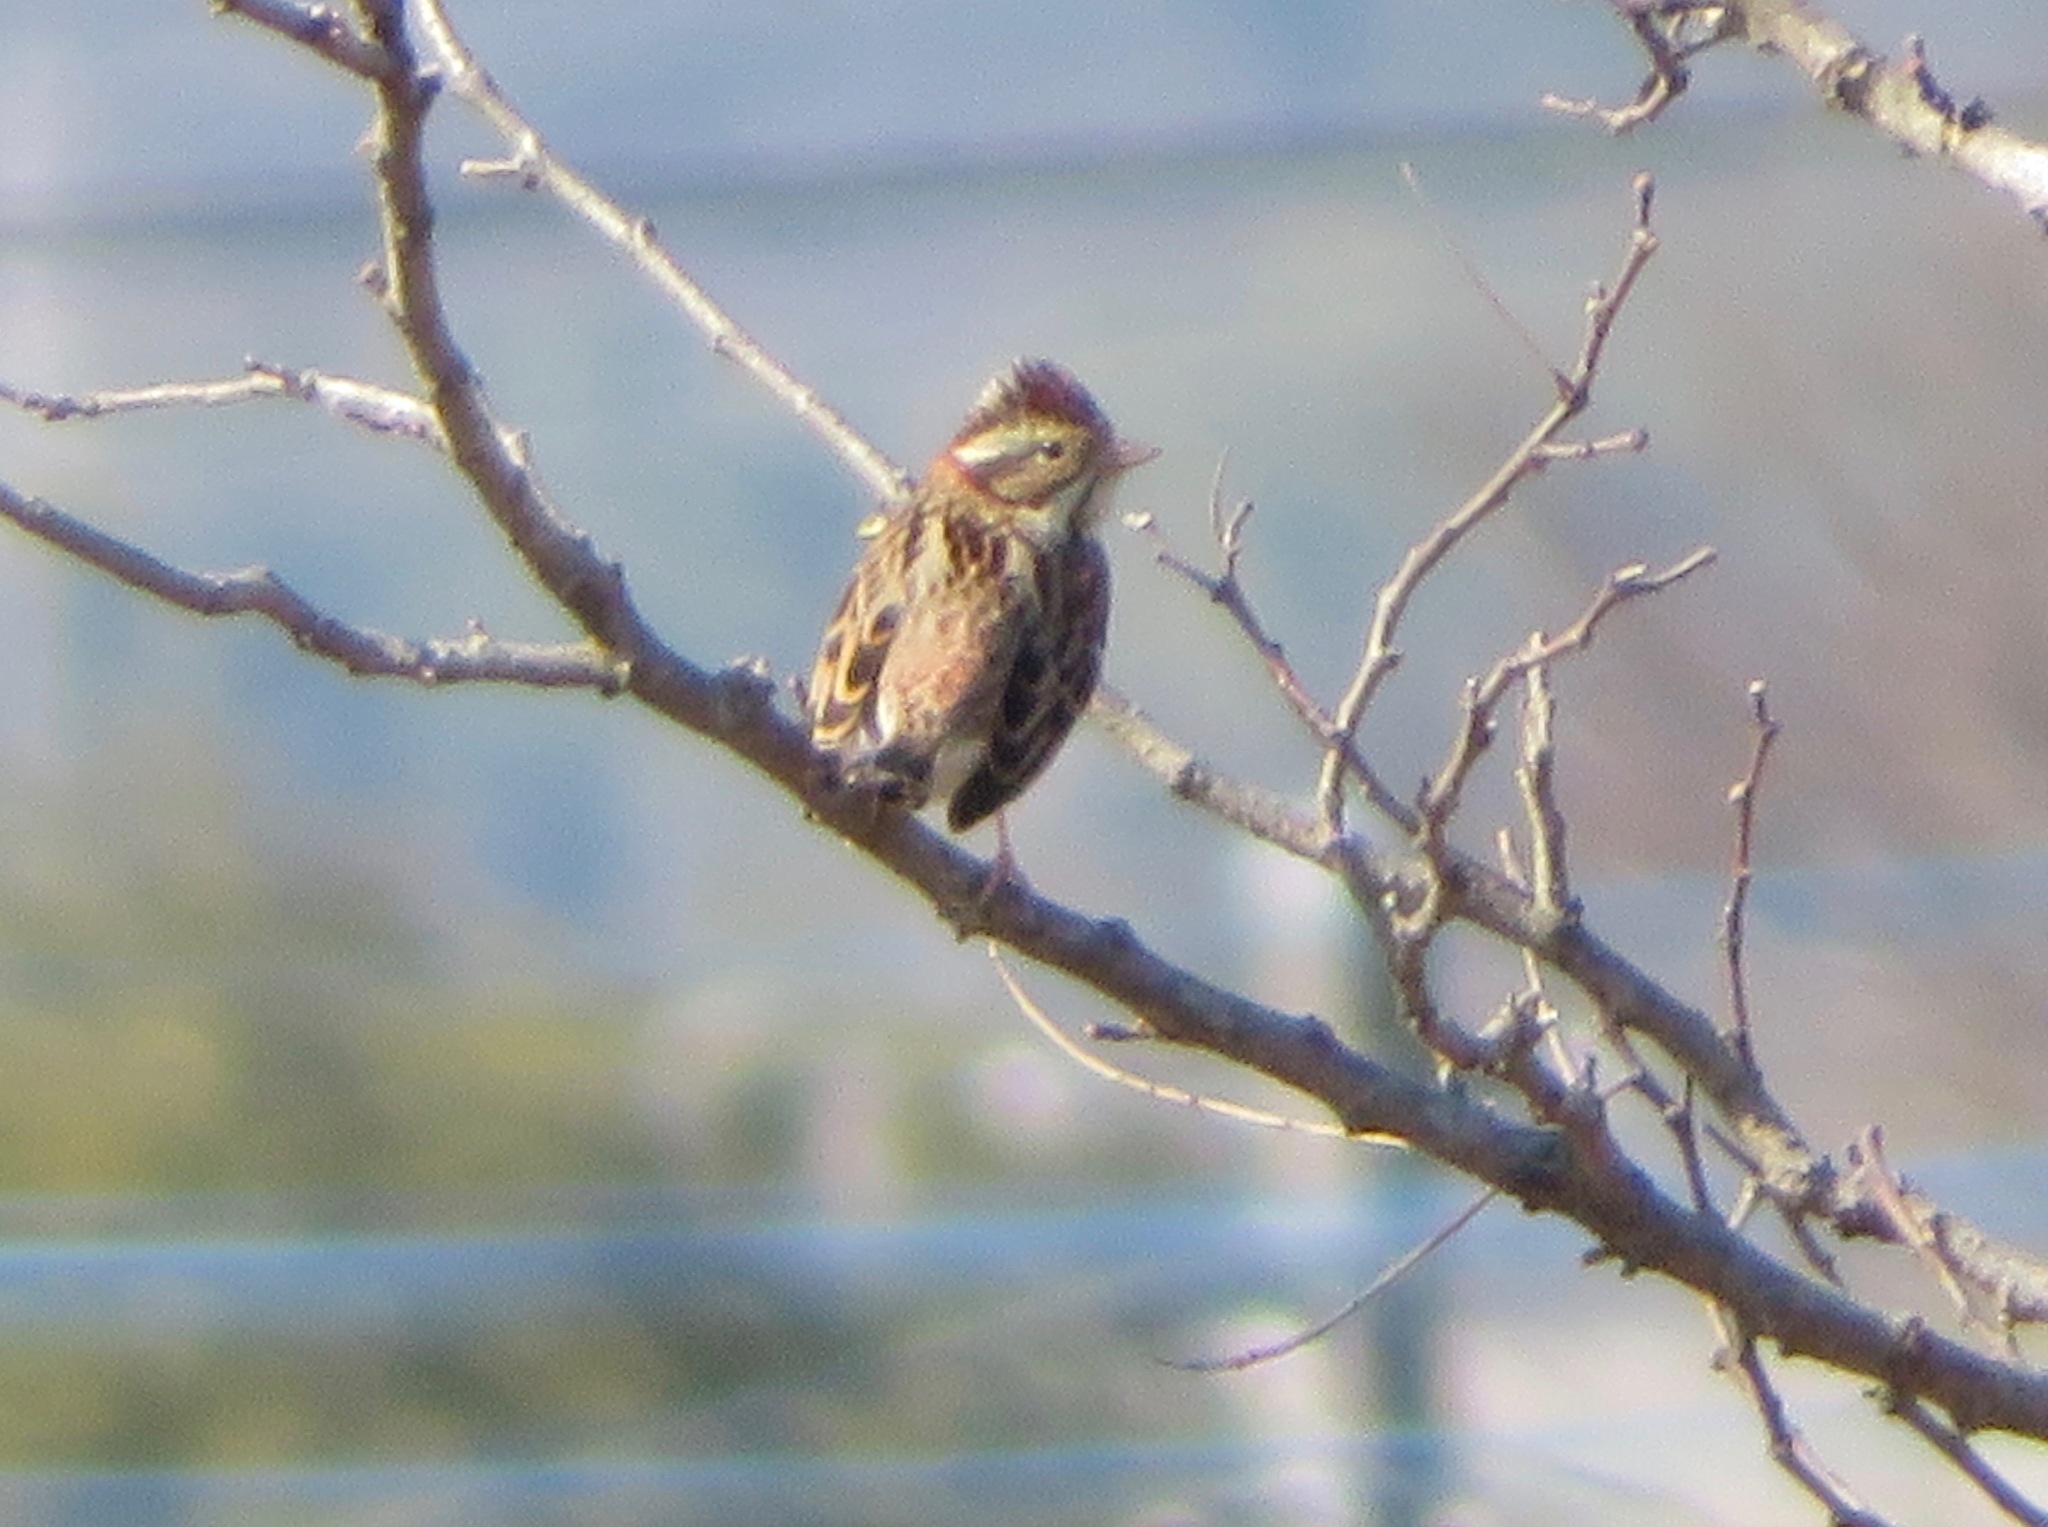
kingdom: Animalia
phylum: Chordata
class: Aves
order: Passeriformes
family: Emberizidae
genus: Emberiza
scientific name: Emberiza rustica
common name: Rustic bunting
